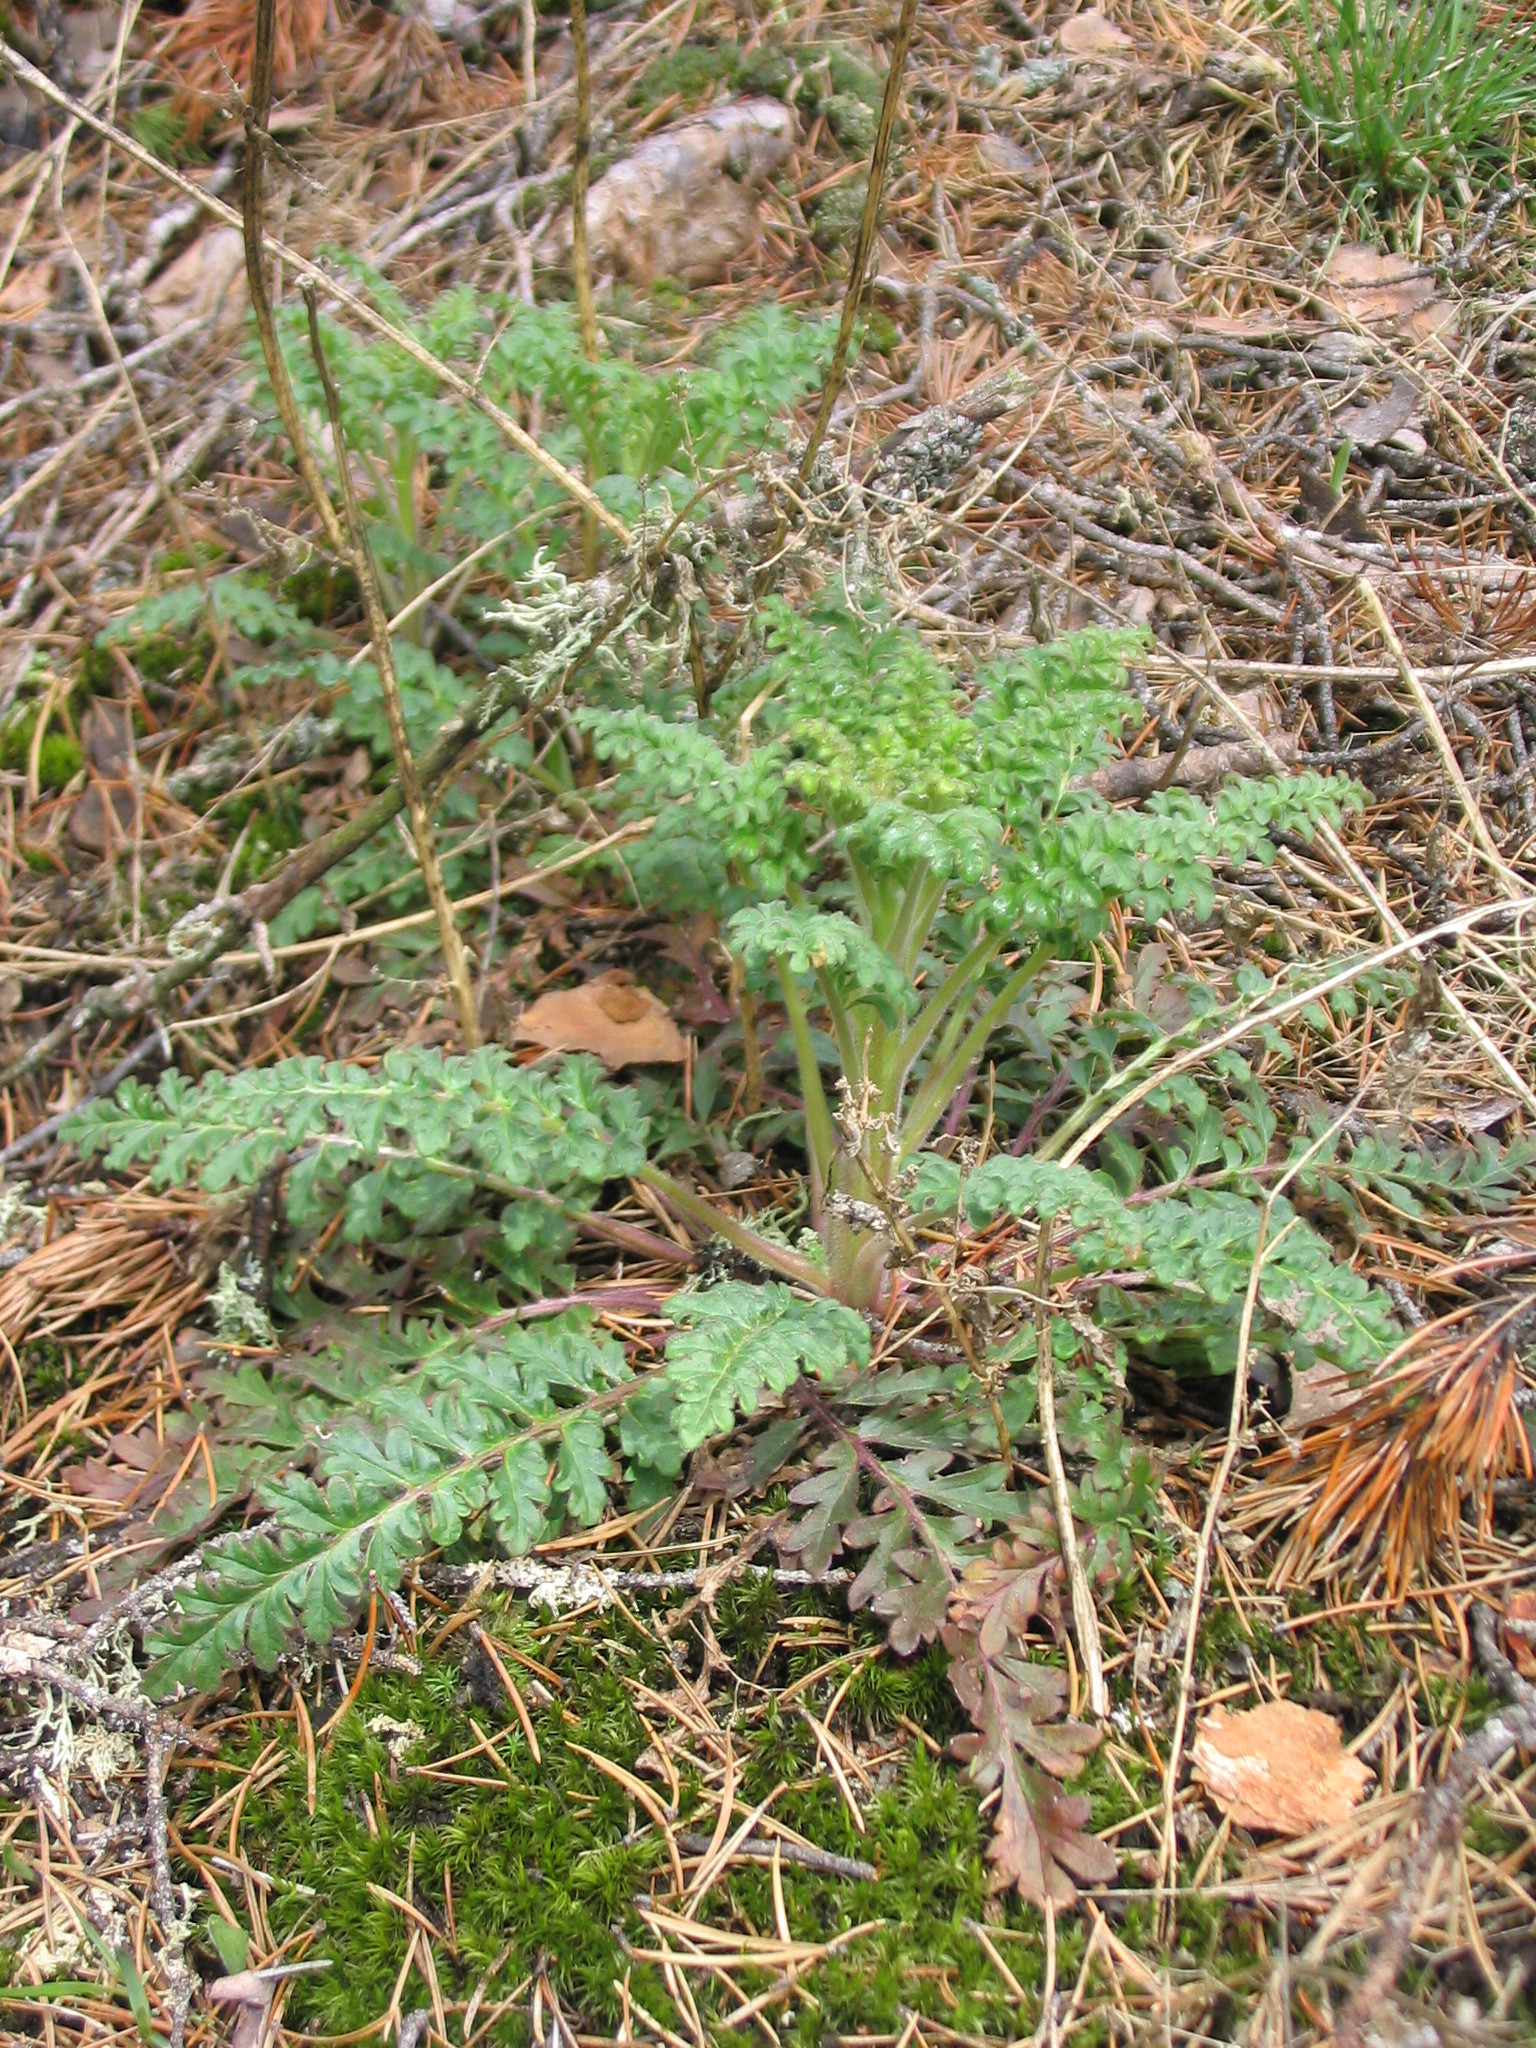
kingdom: Plantae
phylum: Tracheophyta
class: Magnoliopsida
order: Boraginales
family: Hydrophyllaceae
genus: Phacelia
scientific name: Phacelia franklinii
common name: Franklin's phacelia
